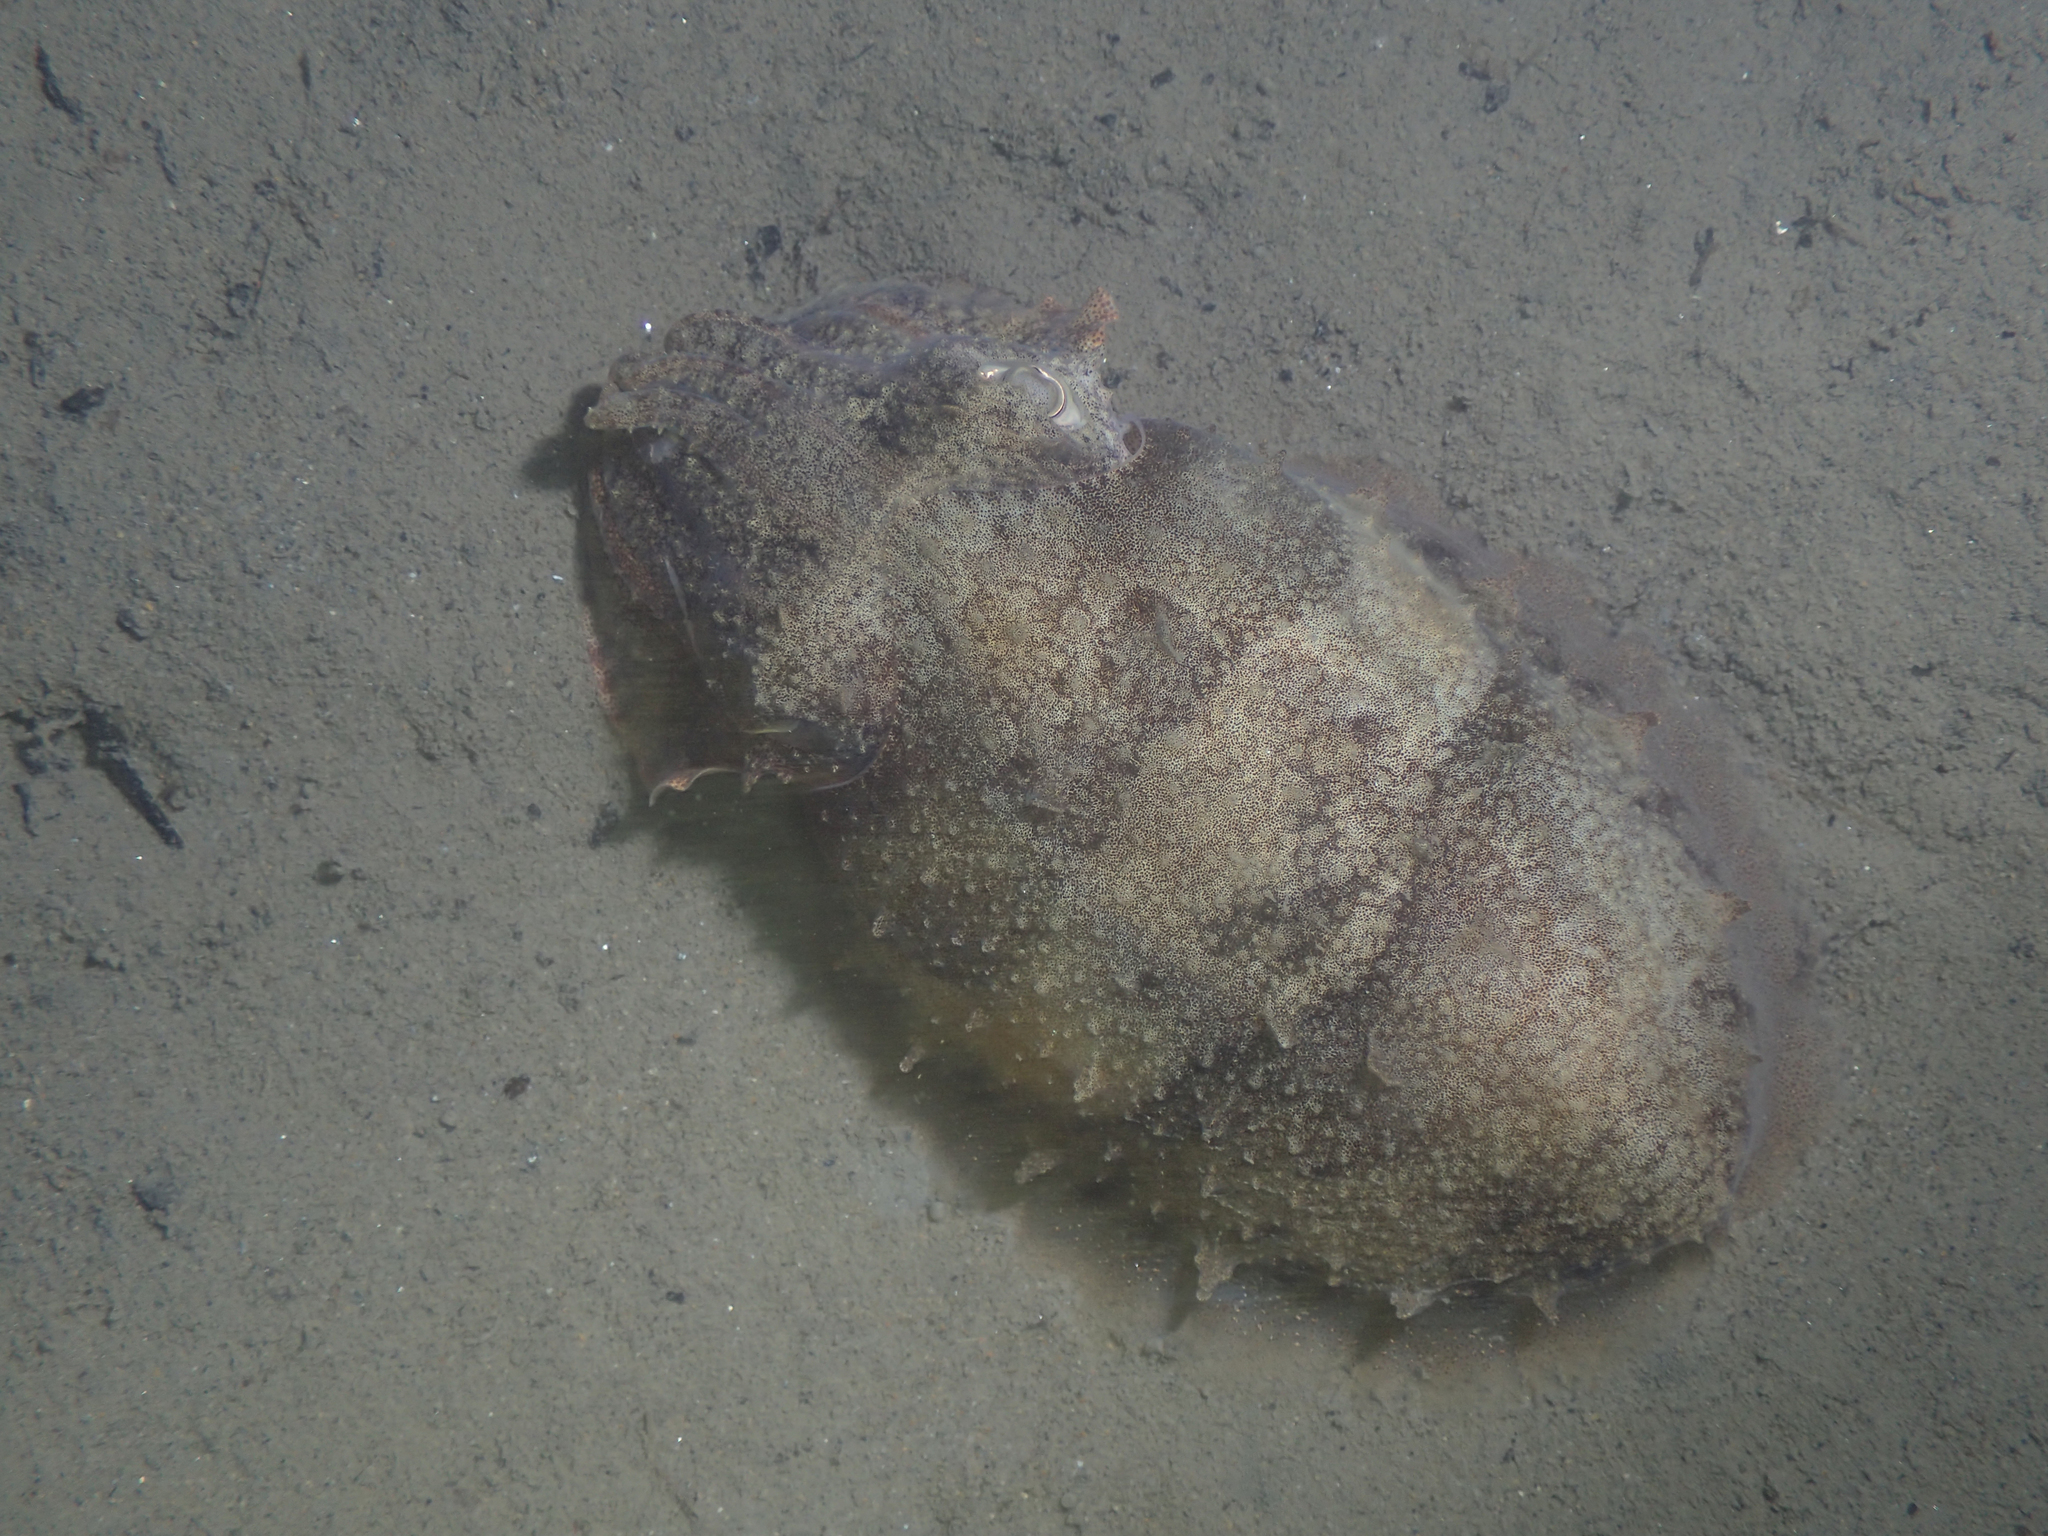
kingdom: Animalia
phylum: Mollusca
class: Cephalopoda
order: Sepiida
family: Sepiidae
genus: Sepia
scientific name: Sepia officinalis
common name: Common cuttlefish
